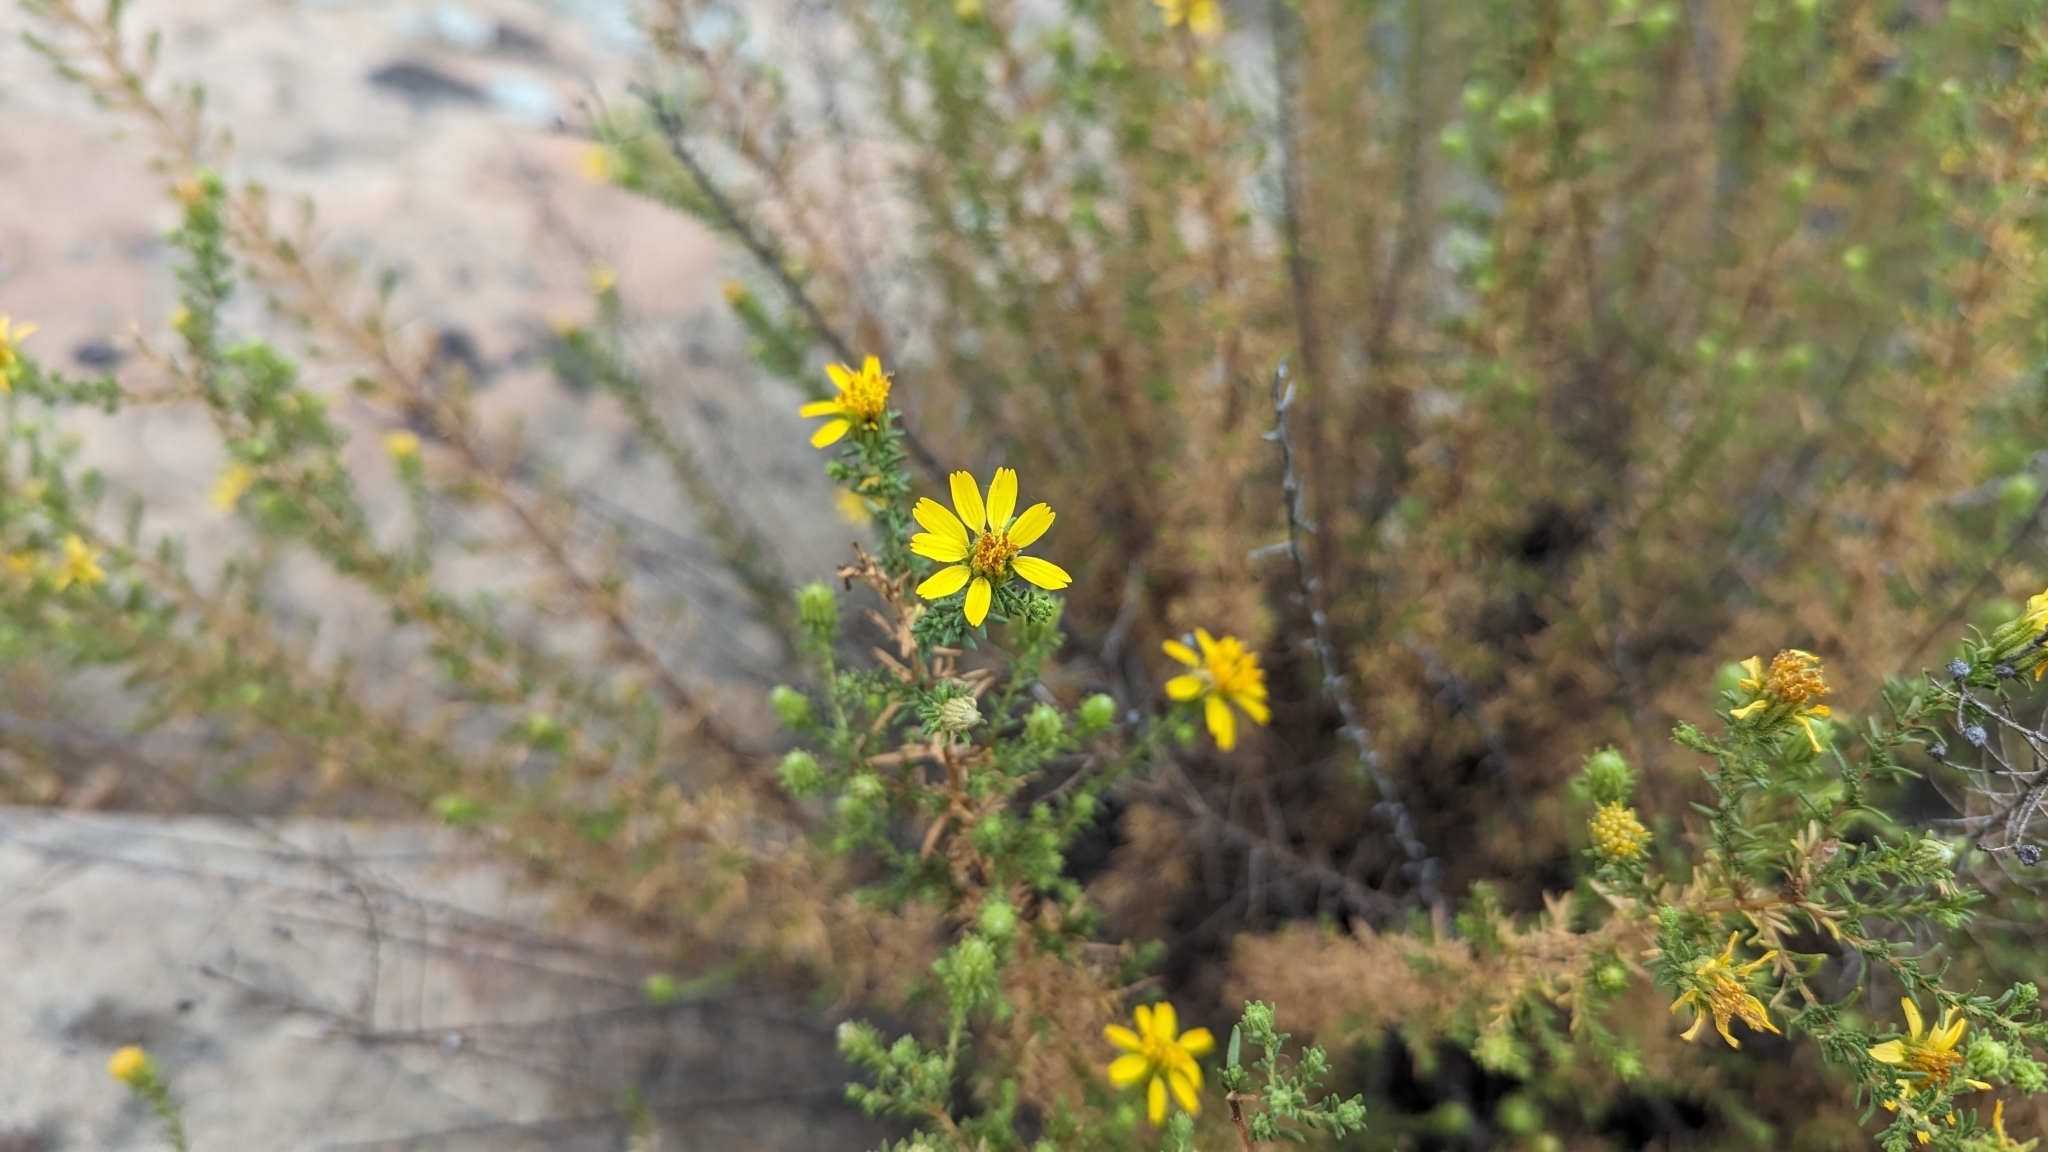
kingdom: Plantae
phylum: Tracheophyta
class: Magnoliopsida
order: Asterales
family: Asteraceae
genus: Deinandra
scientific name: Deinandra minthornii
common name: Santa susana tarplant
